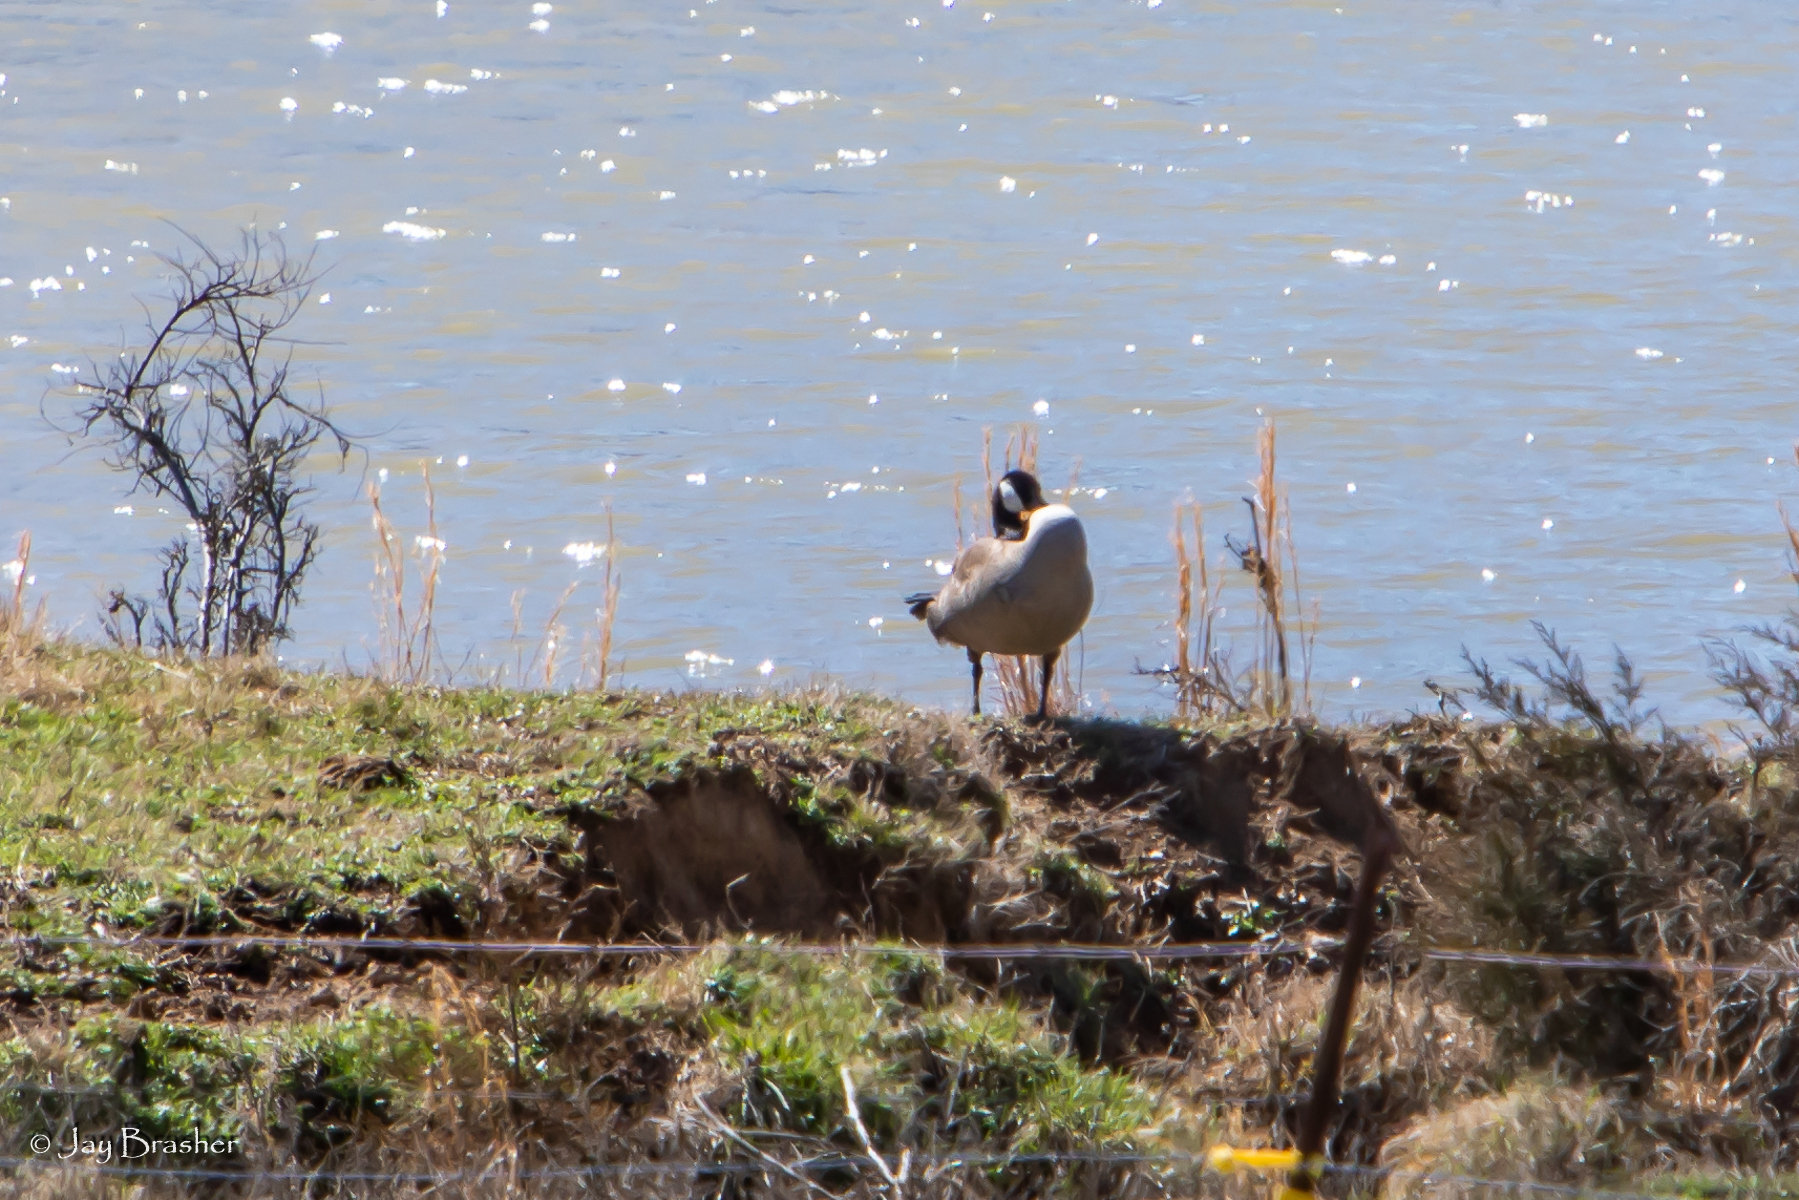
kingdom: Animalia
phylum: Chordata
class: Aves
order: Anseriformes
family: Anatidae
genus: Branta
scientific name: Branta canadensis
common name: Canada goose
